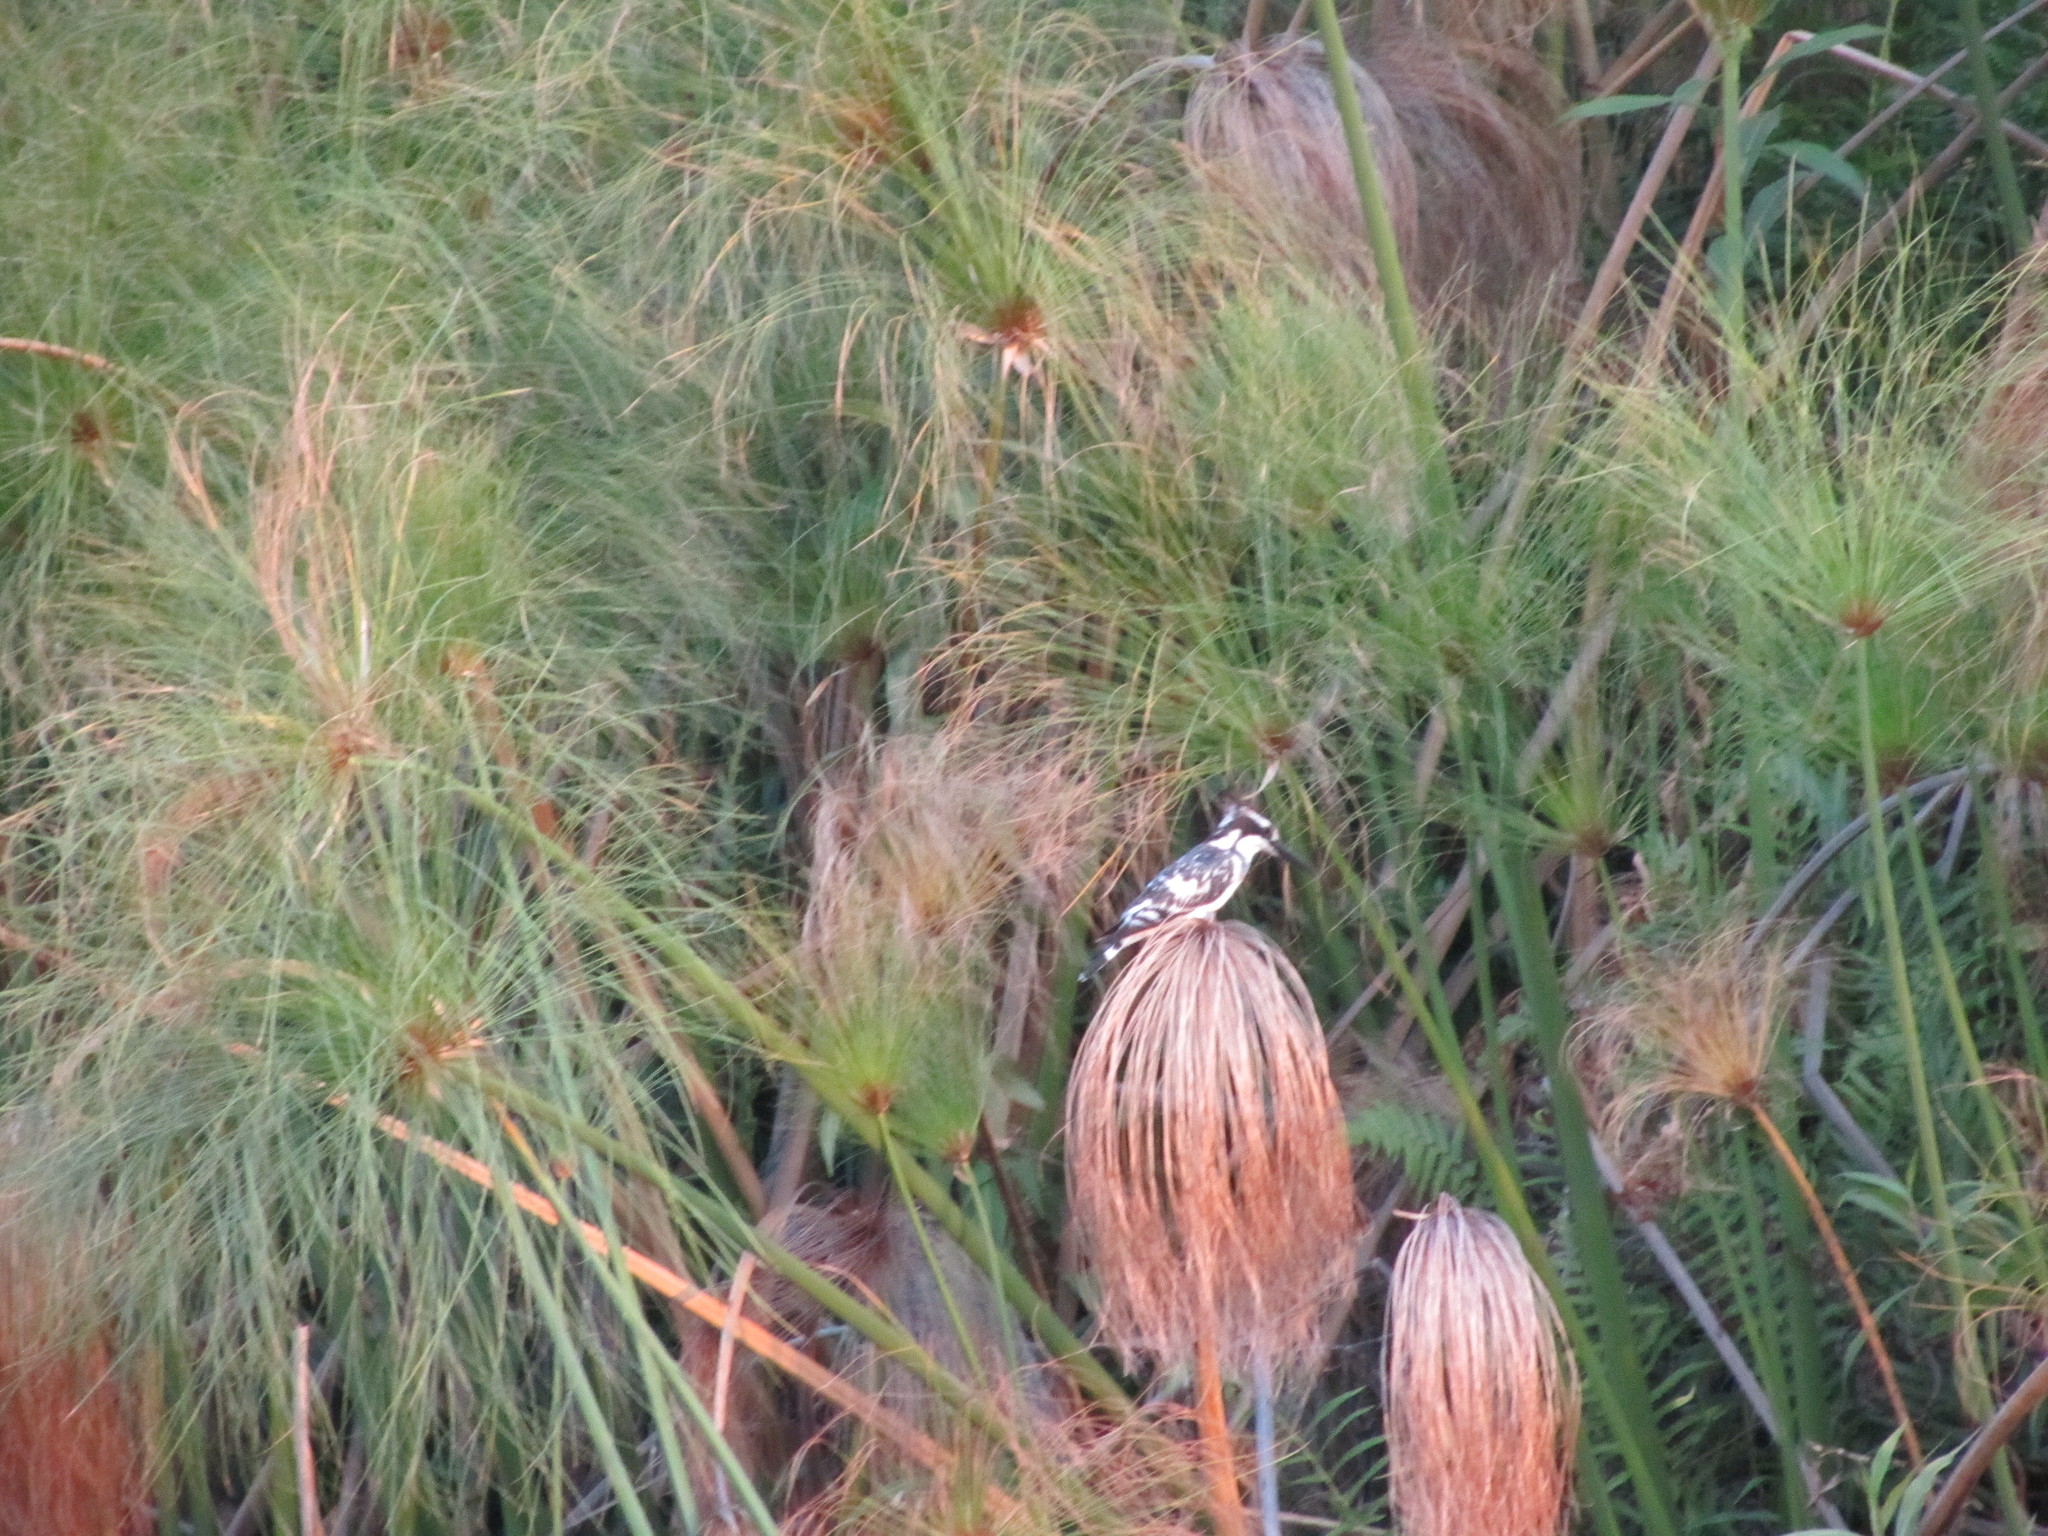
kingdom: Animalia
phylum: Chordata
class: Aves
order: Coraciiformes
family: Alcedinidae
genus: Ceryle
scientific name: Ceryle rudis
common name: Pied kingfisher
